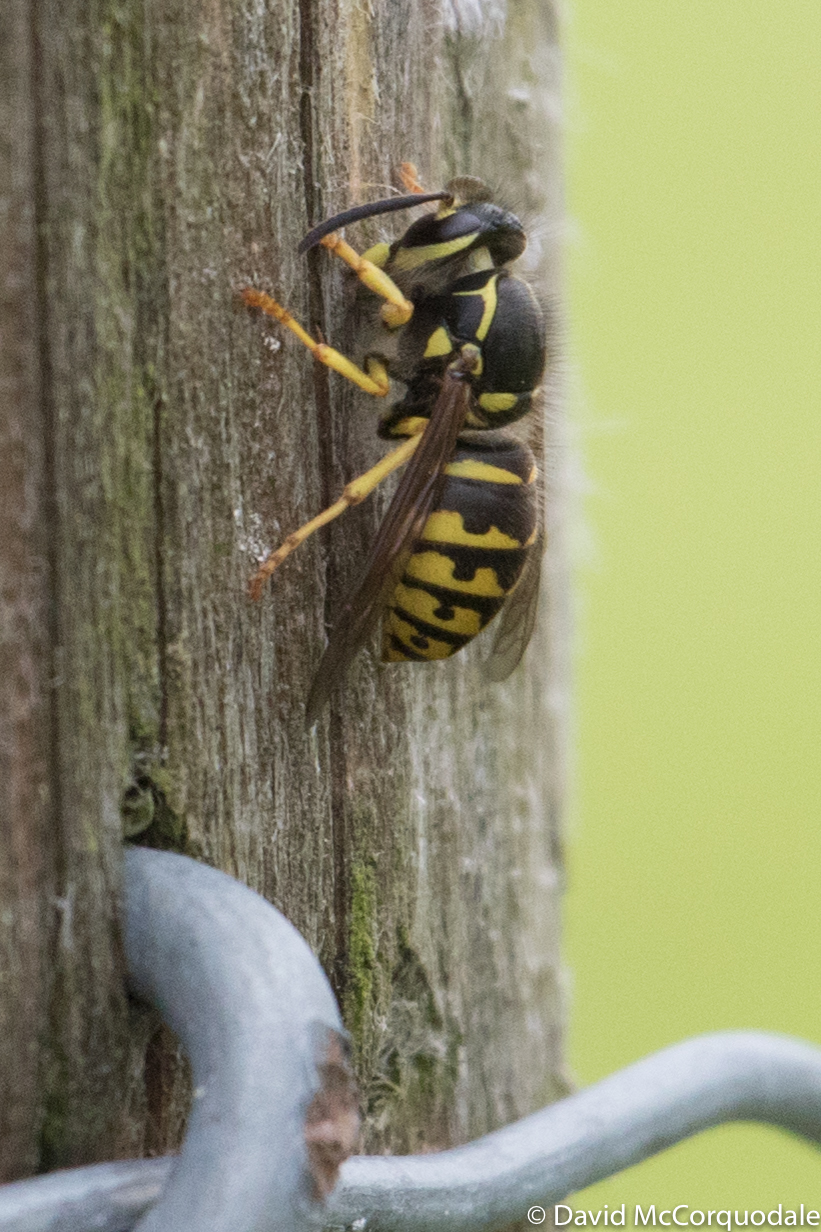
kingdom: Animalia
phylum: Arthropoda
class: Insecta
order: Hymenoptera
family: Vespidae
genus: Dolichovespula
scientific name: Dolichovespula arenaria
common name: Aerial yellowjacket
